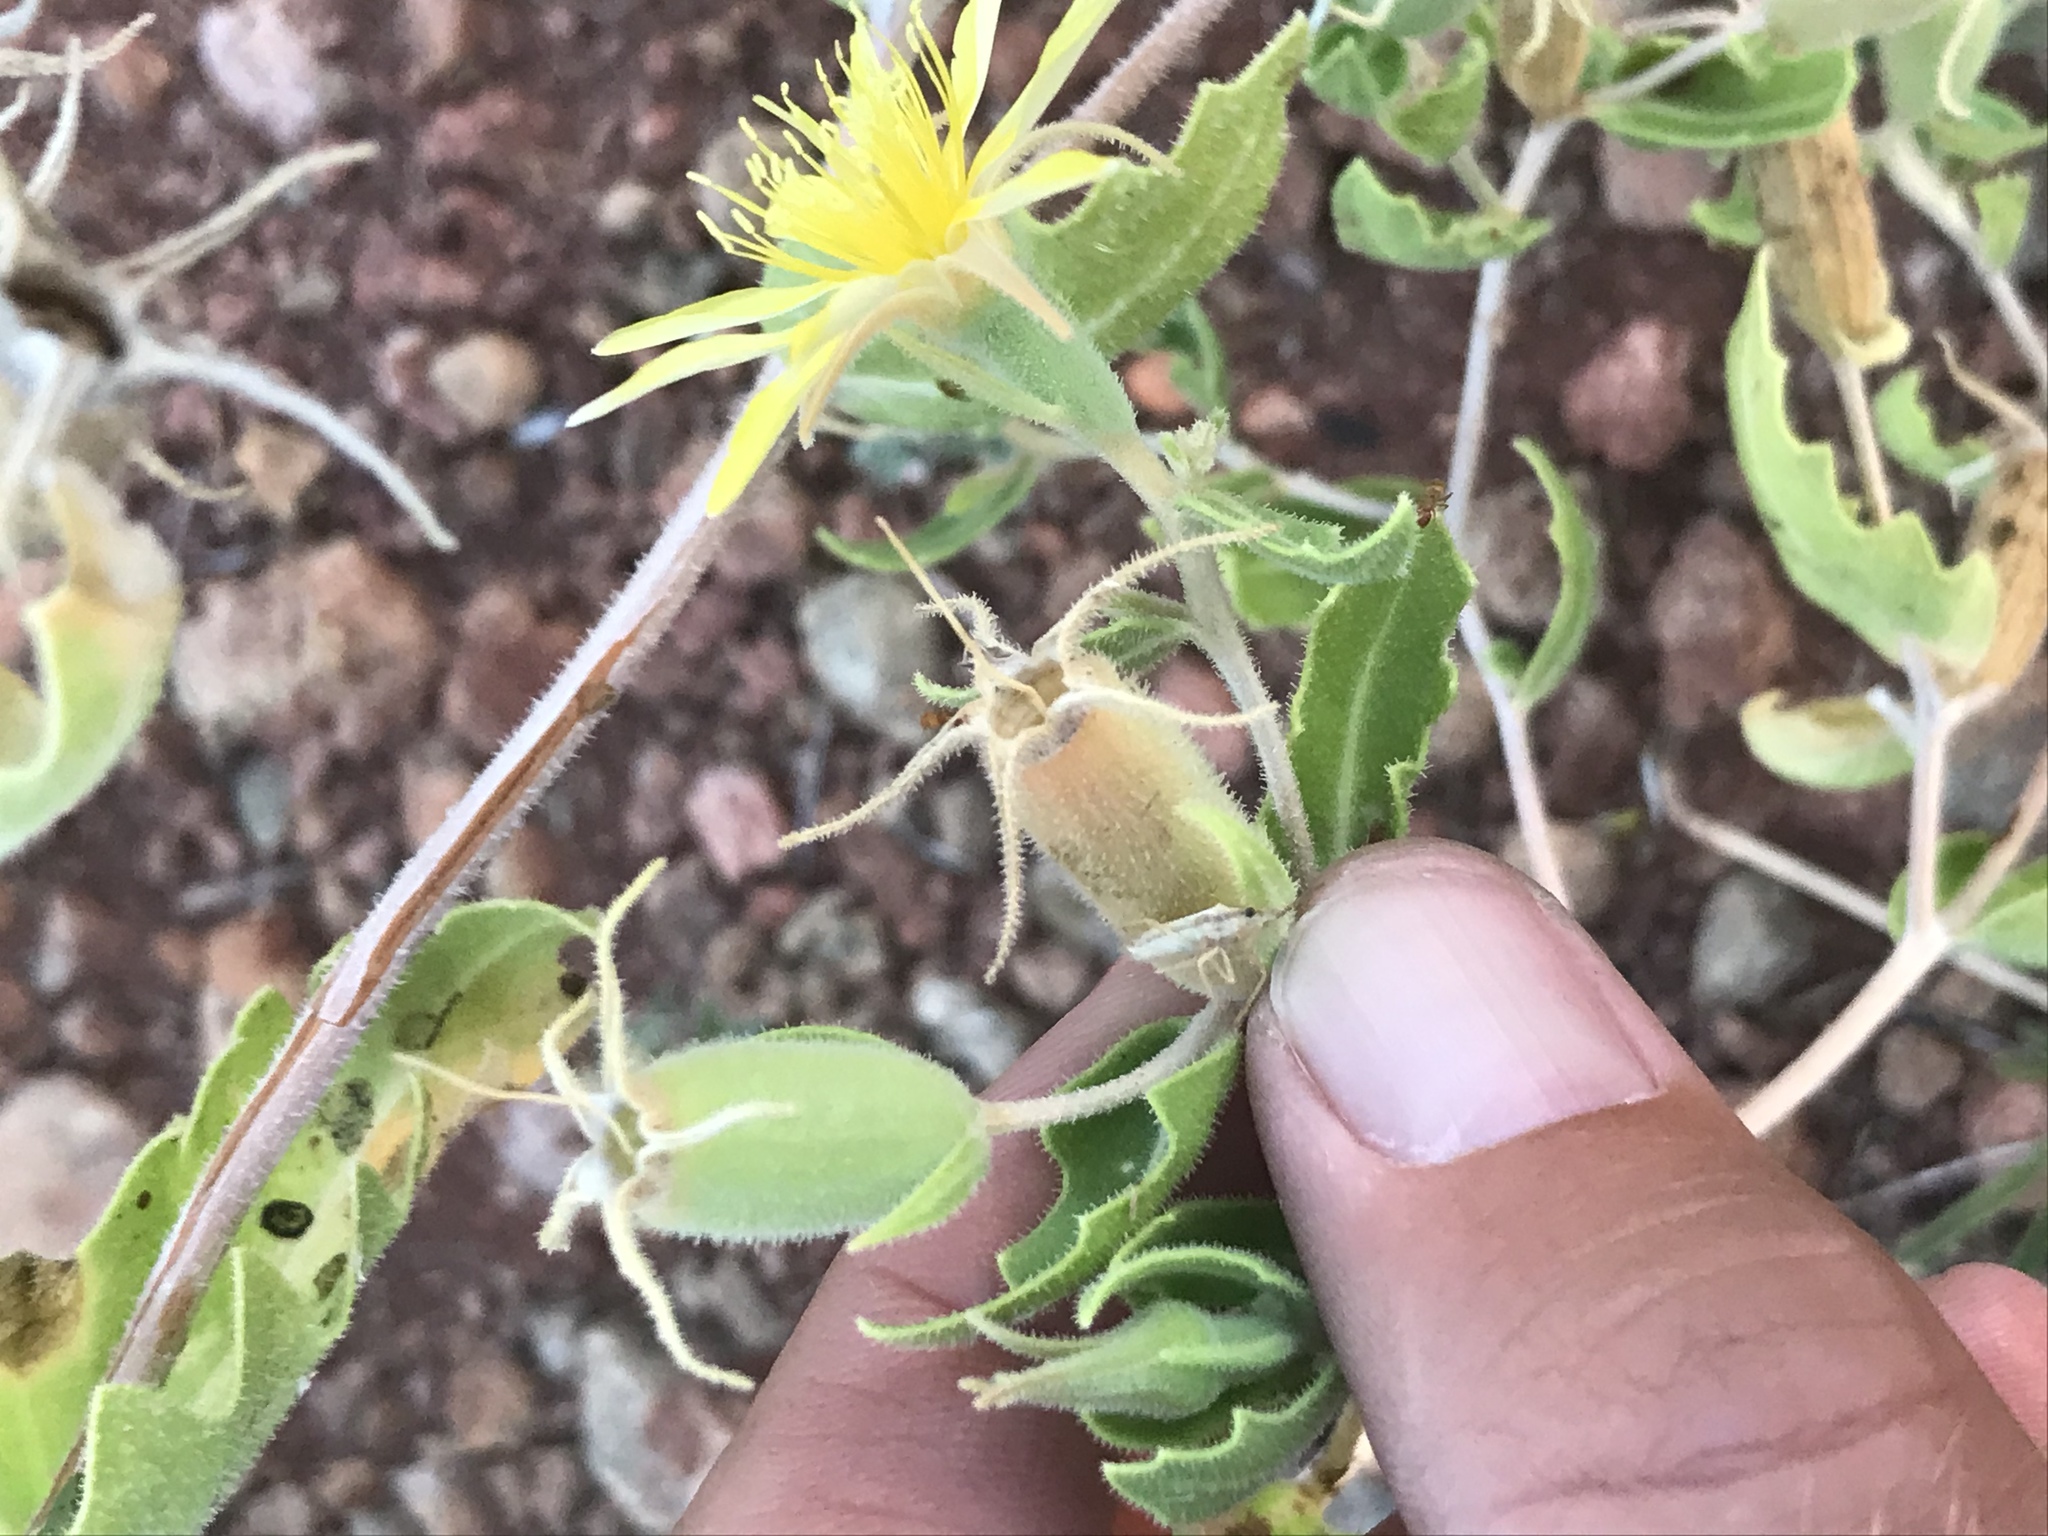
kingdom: Plantae
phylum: Tracheophyta
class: Magnoliopsida
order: Cornales
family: Loasaceae
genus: Mentzelia
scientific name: Mentzelia reverchonii
